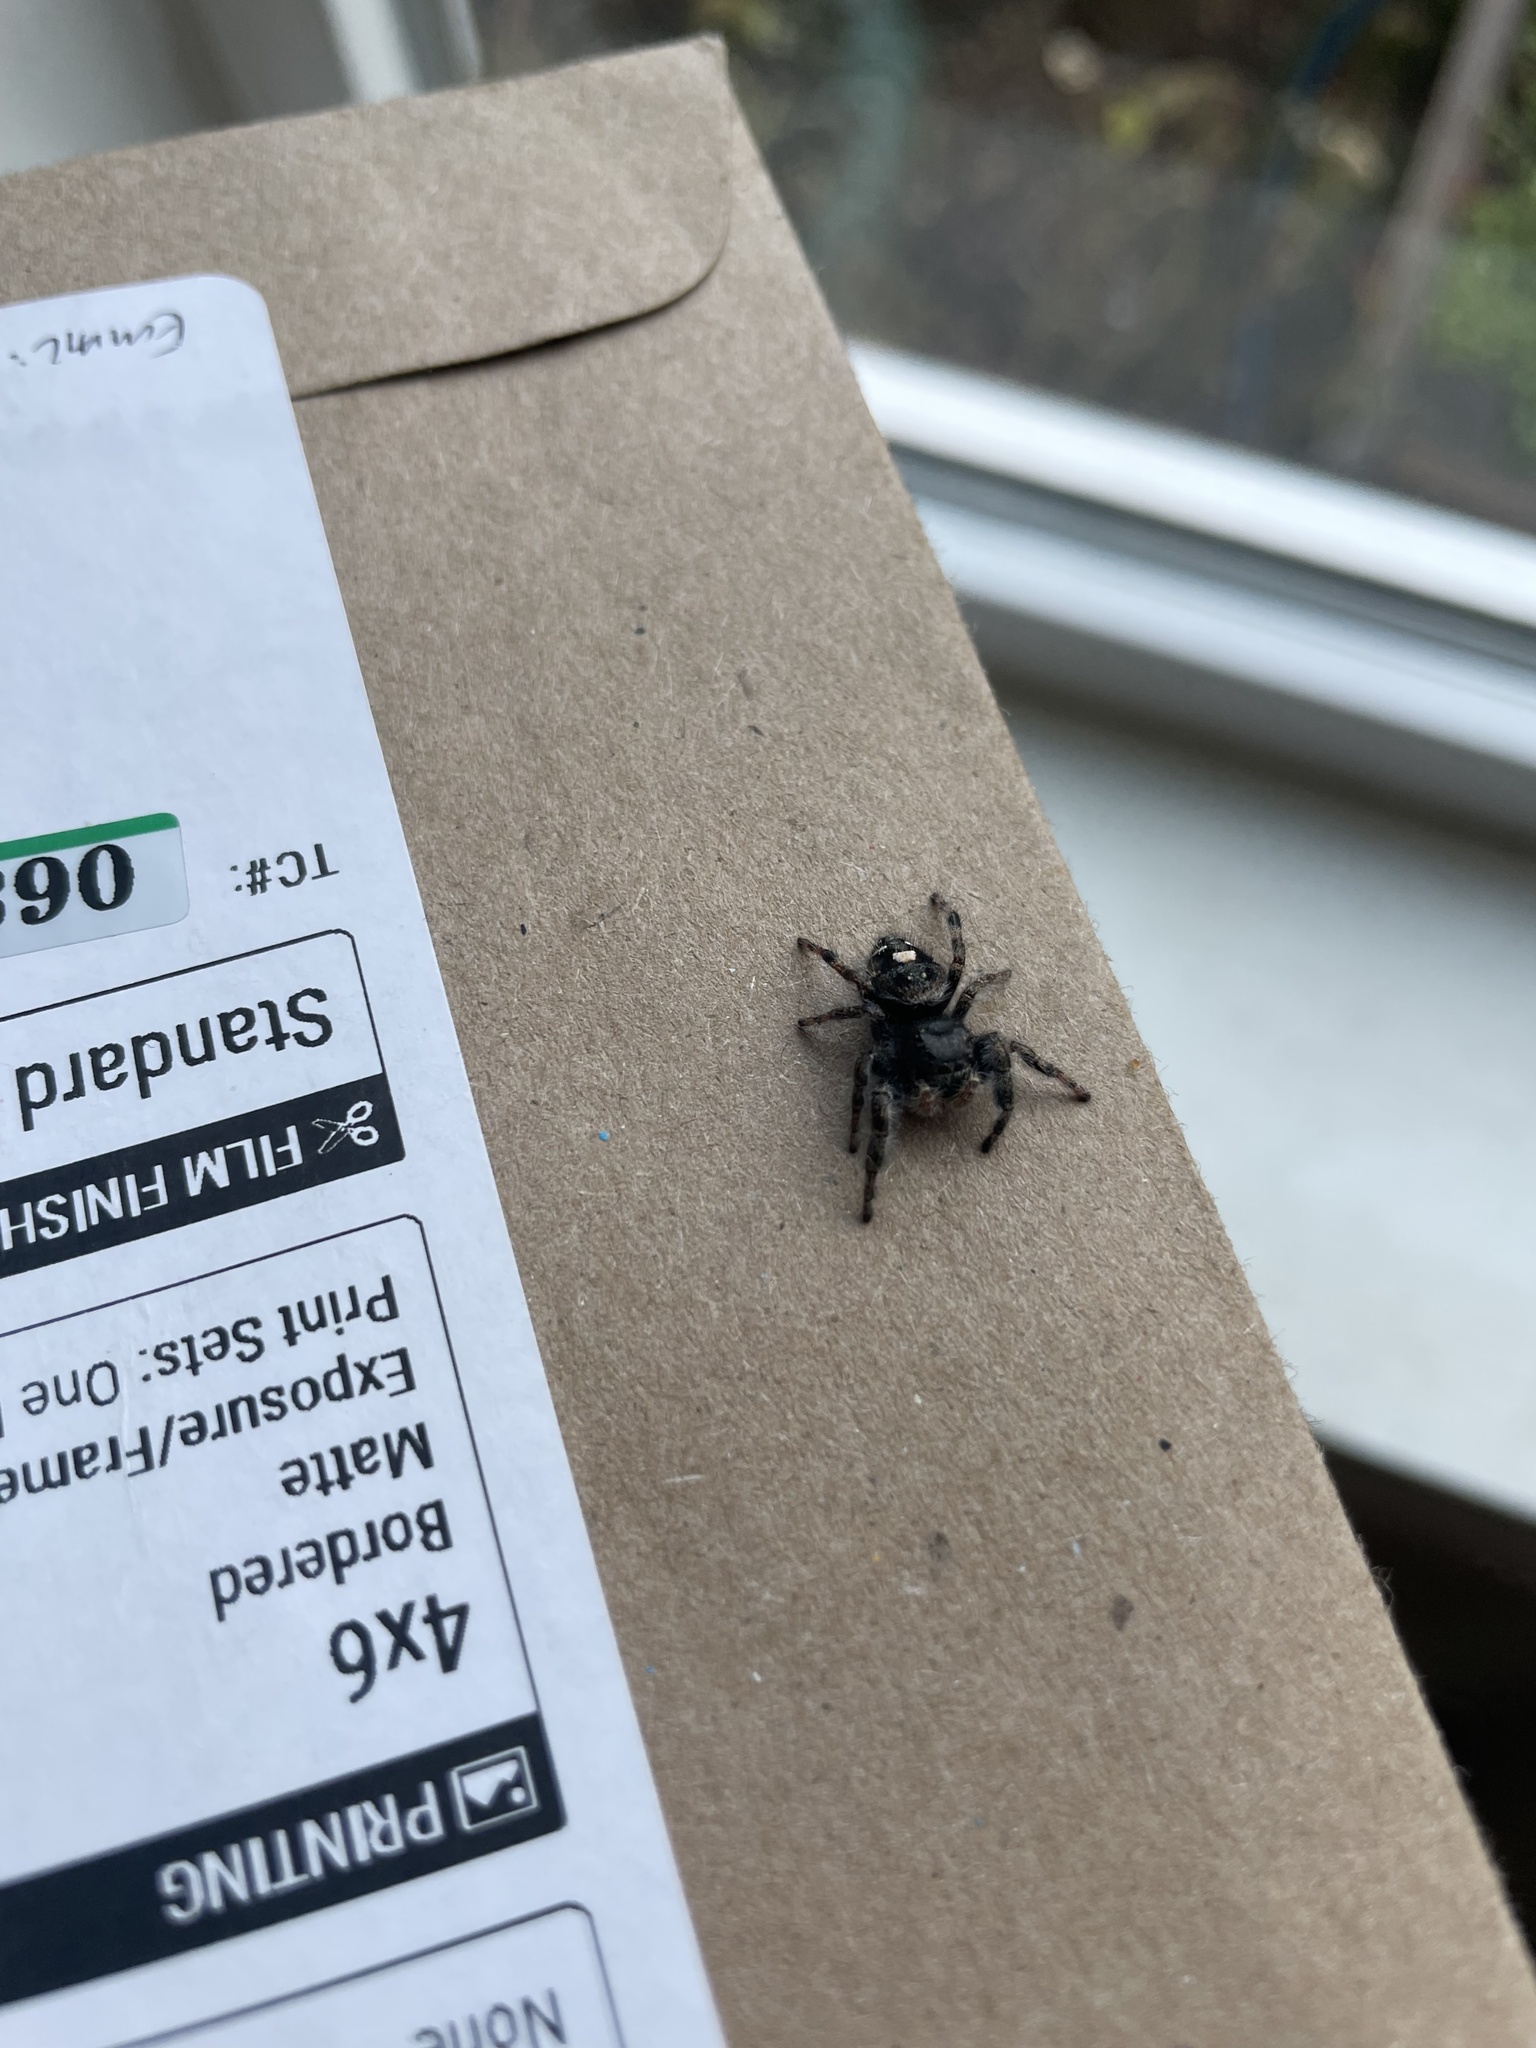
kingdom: Animalia
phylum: Arthropoda
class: Arachnida
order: Araneae
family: Salticidae
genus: Phidippus
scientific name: Phidippus audax
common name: Bold jumper
